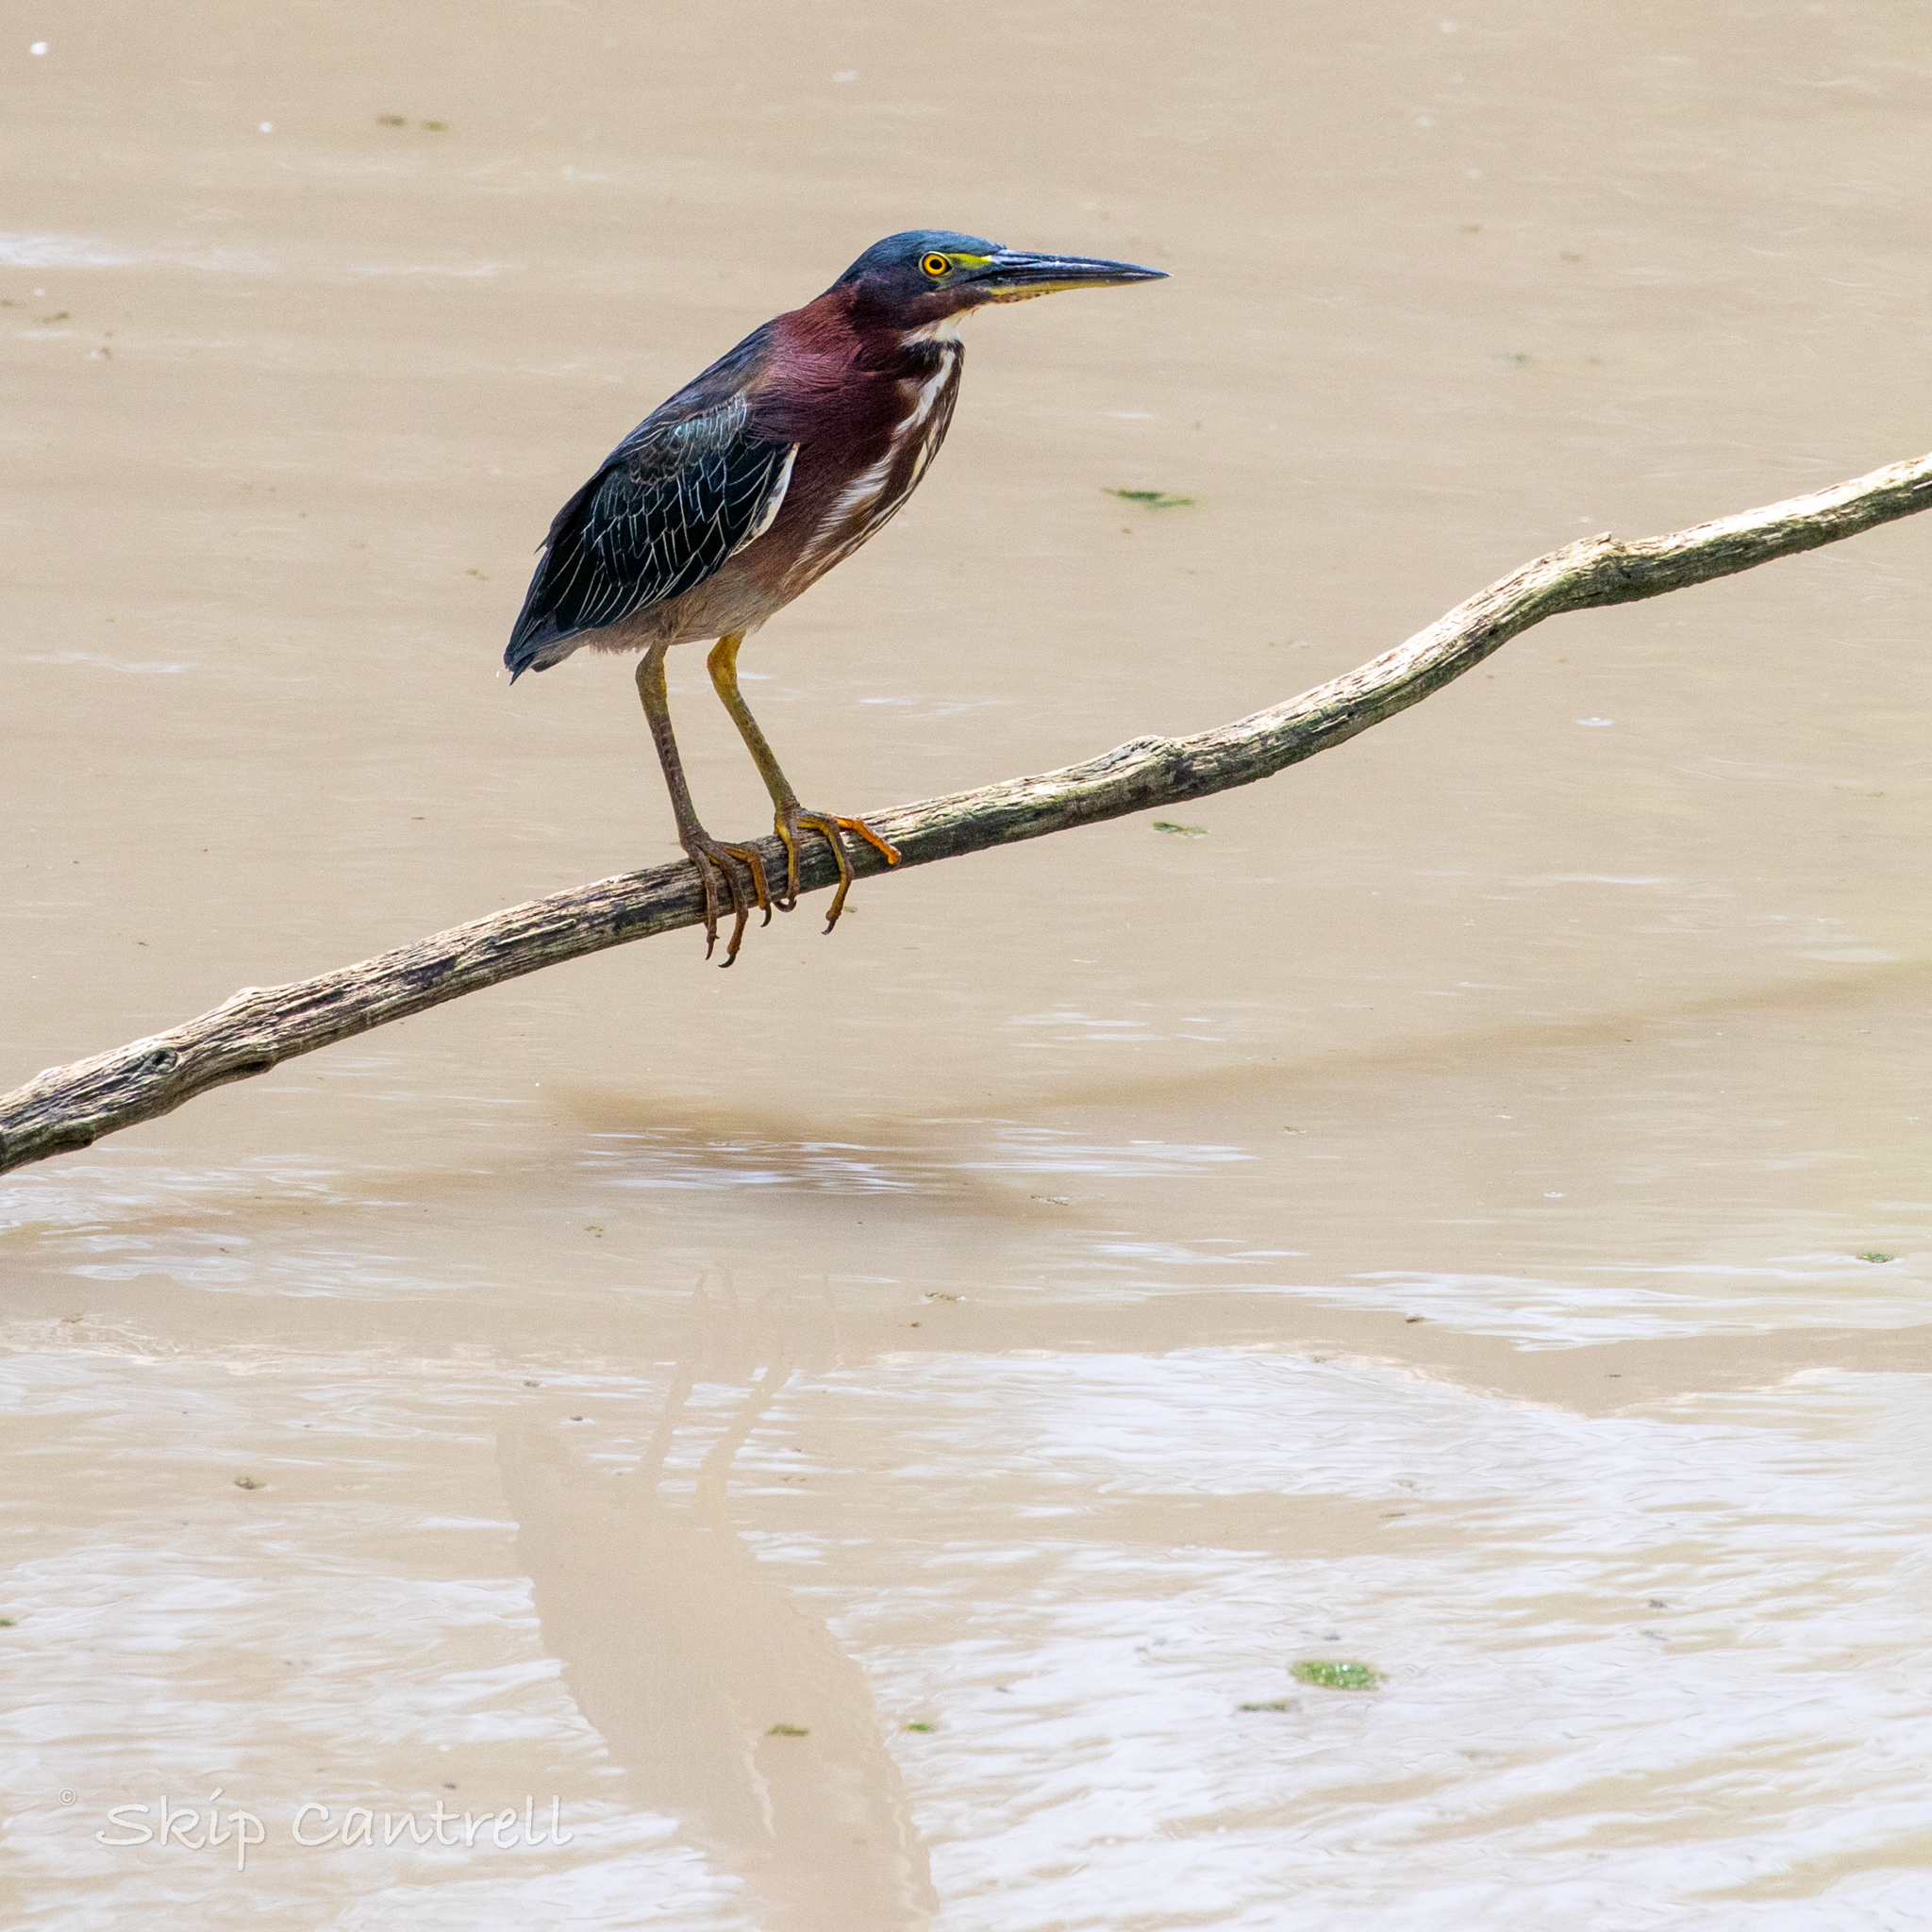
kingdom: Animalia
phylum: Chordata
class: Aves
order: Pelecaniformes
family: Ardeidae
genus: Butorides
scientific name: Butorides virescens
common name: Green heron
